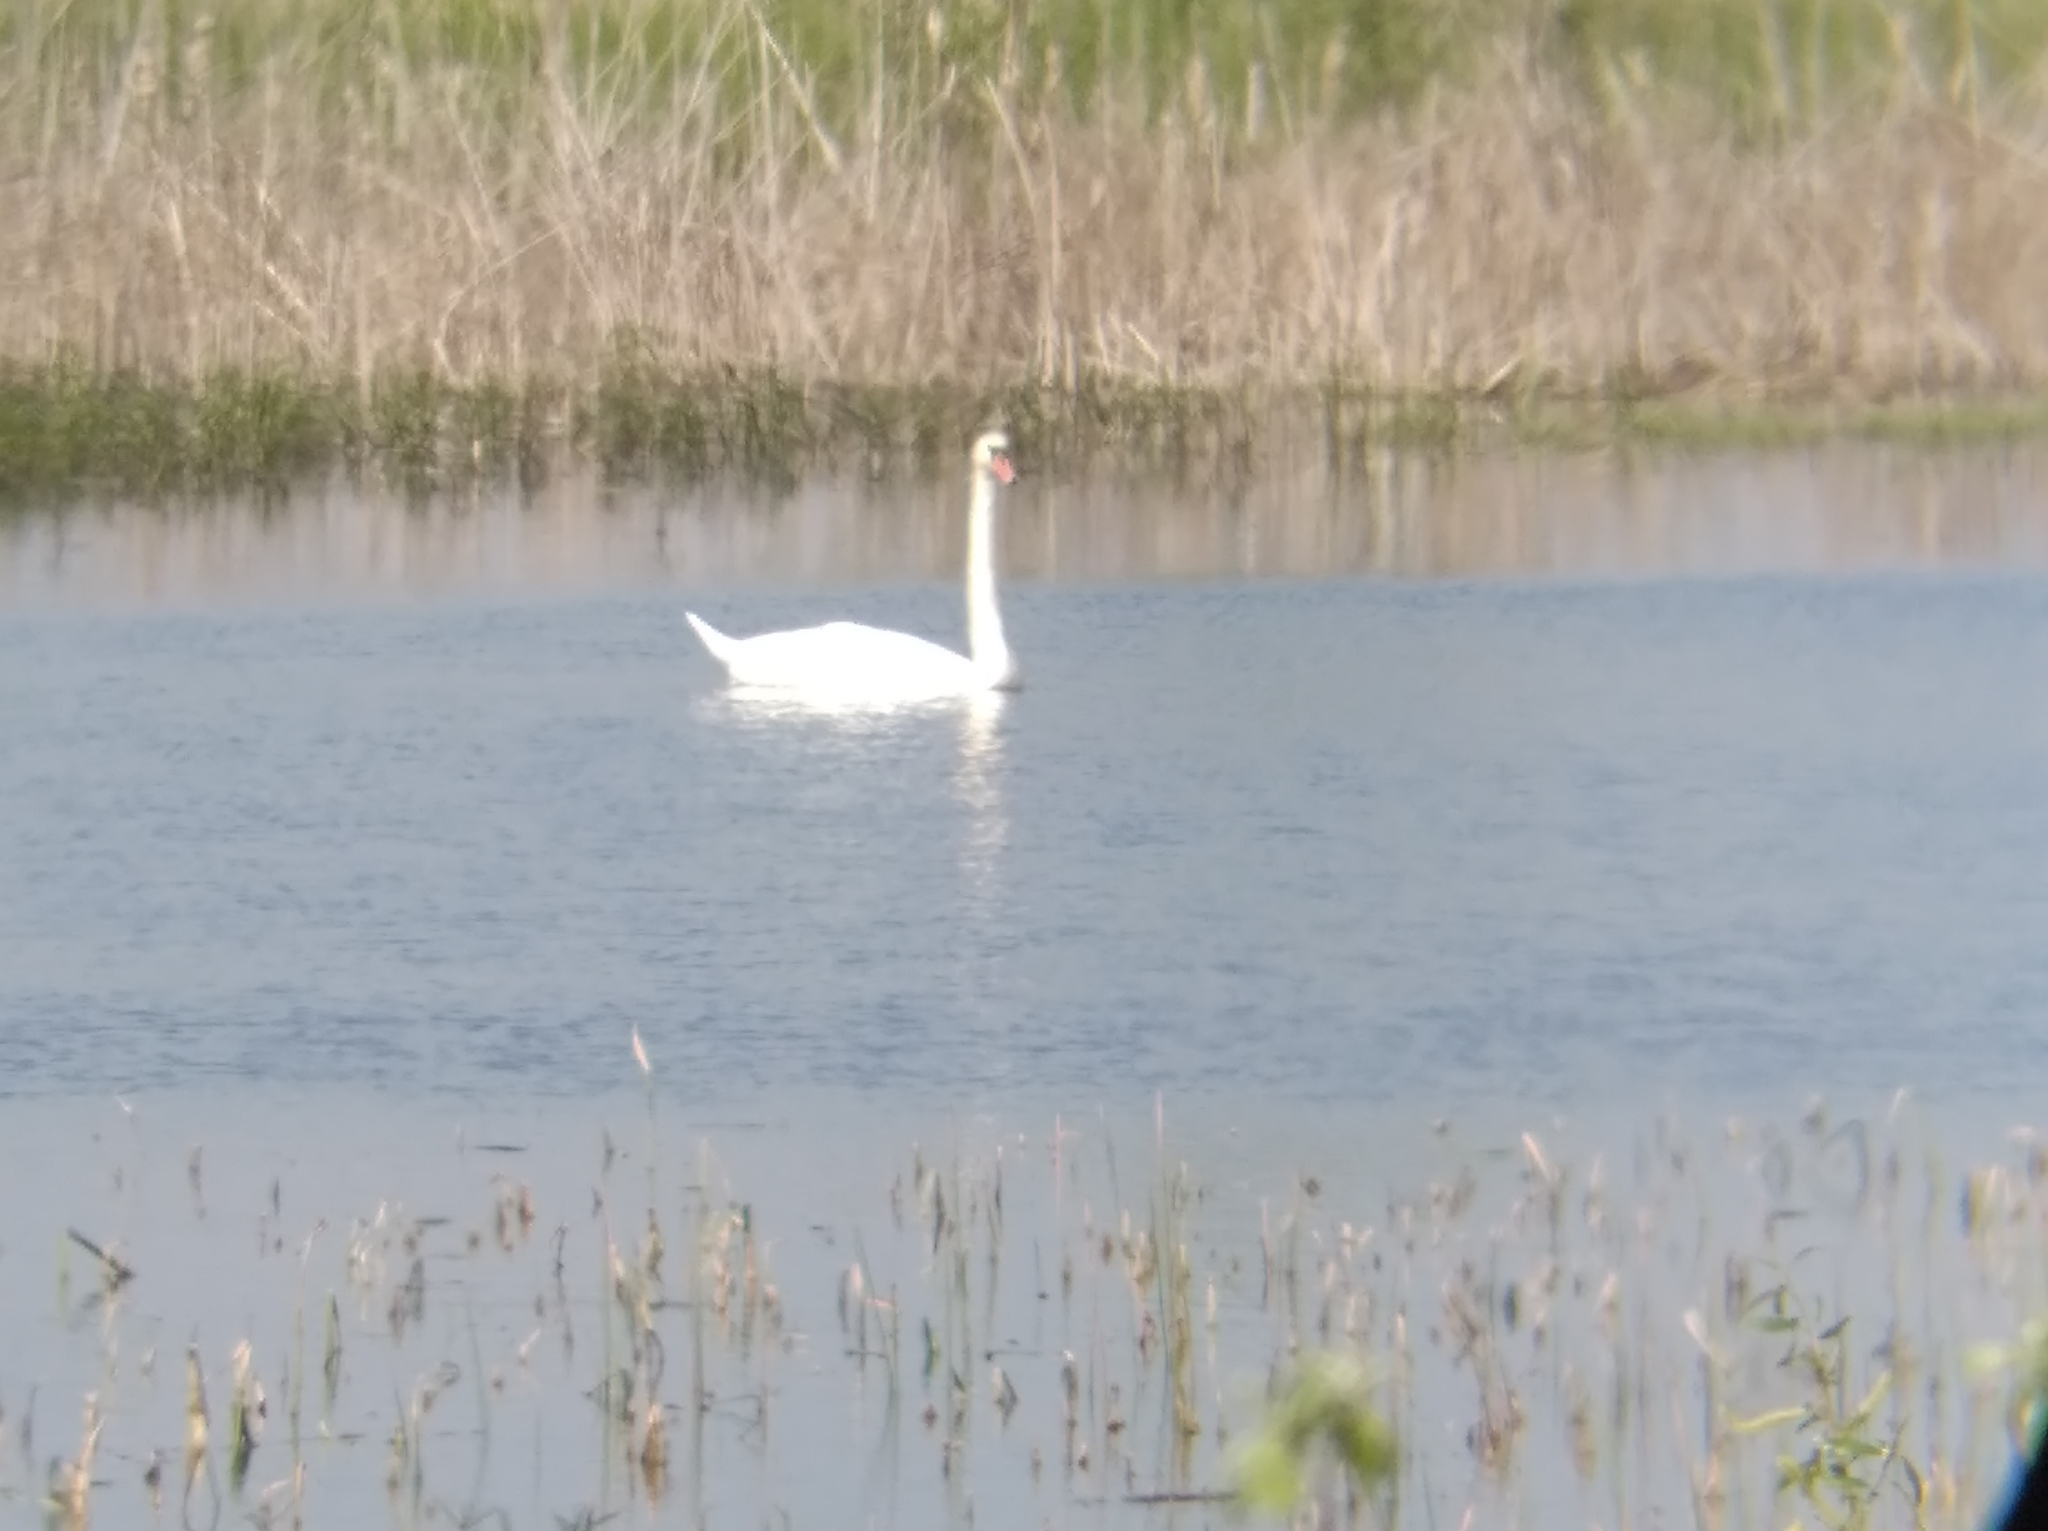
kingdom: Animalia
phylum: Chordata
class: Aves
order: Anseriformes
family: Anatidae
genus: Cygnus
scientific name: Cygnus olor
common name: Mute swan
